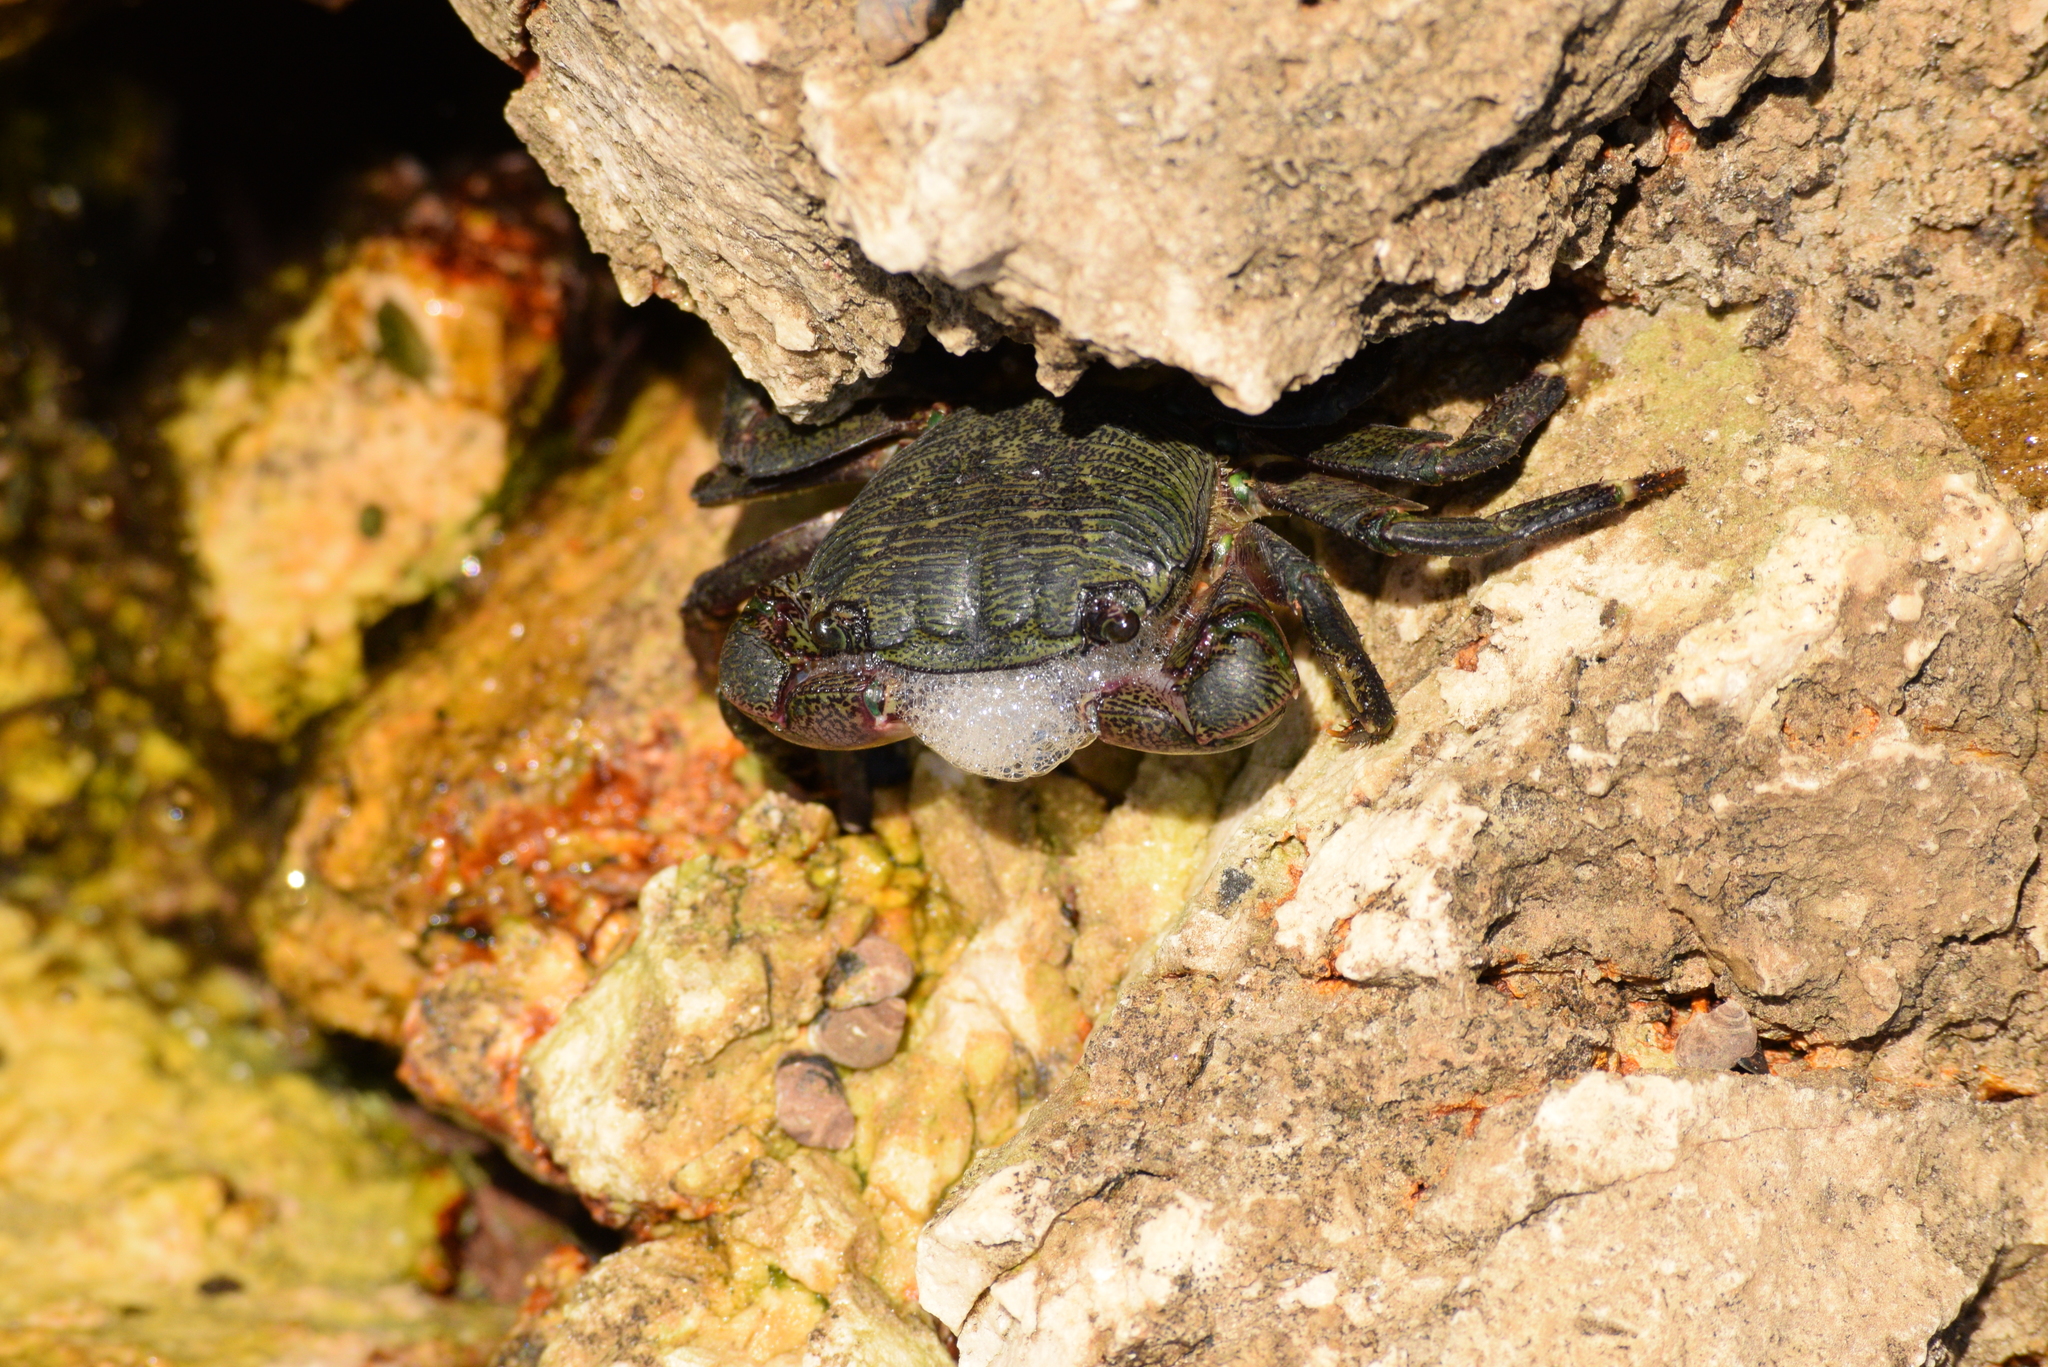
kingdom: Animalia
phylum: Arthropoda
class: Malacostraca
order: Decapoda
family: Grapsidae
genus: Pachygrapsus
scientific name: Pachygrapsus crassipes
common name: Striped shore crab
